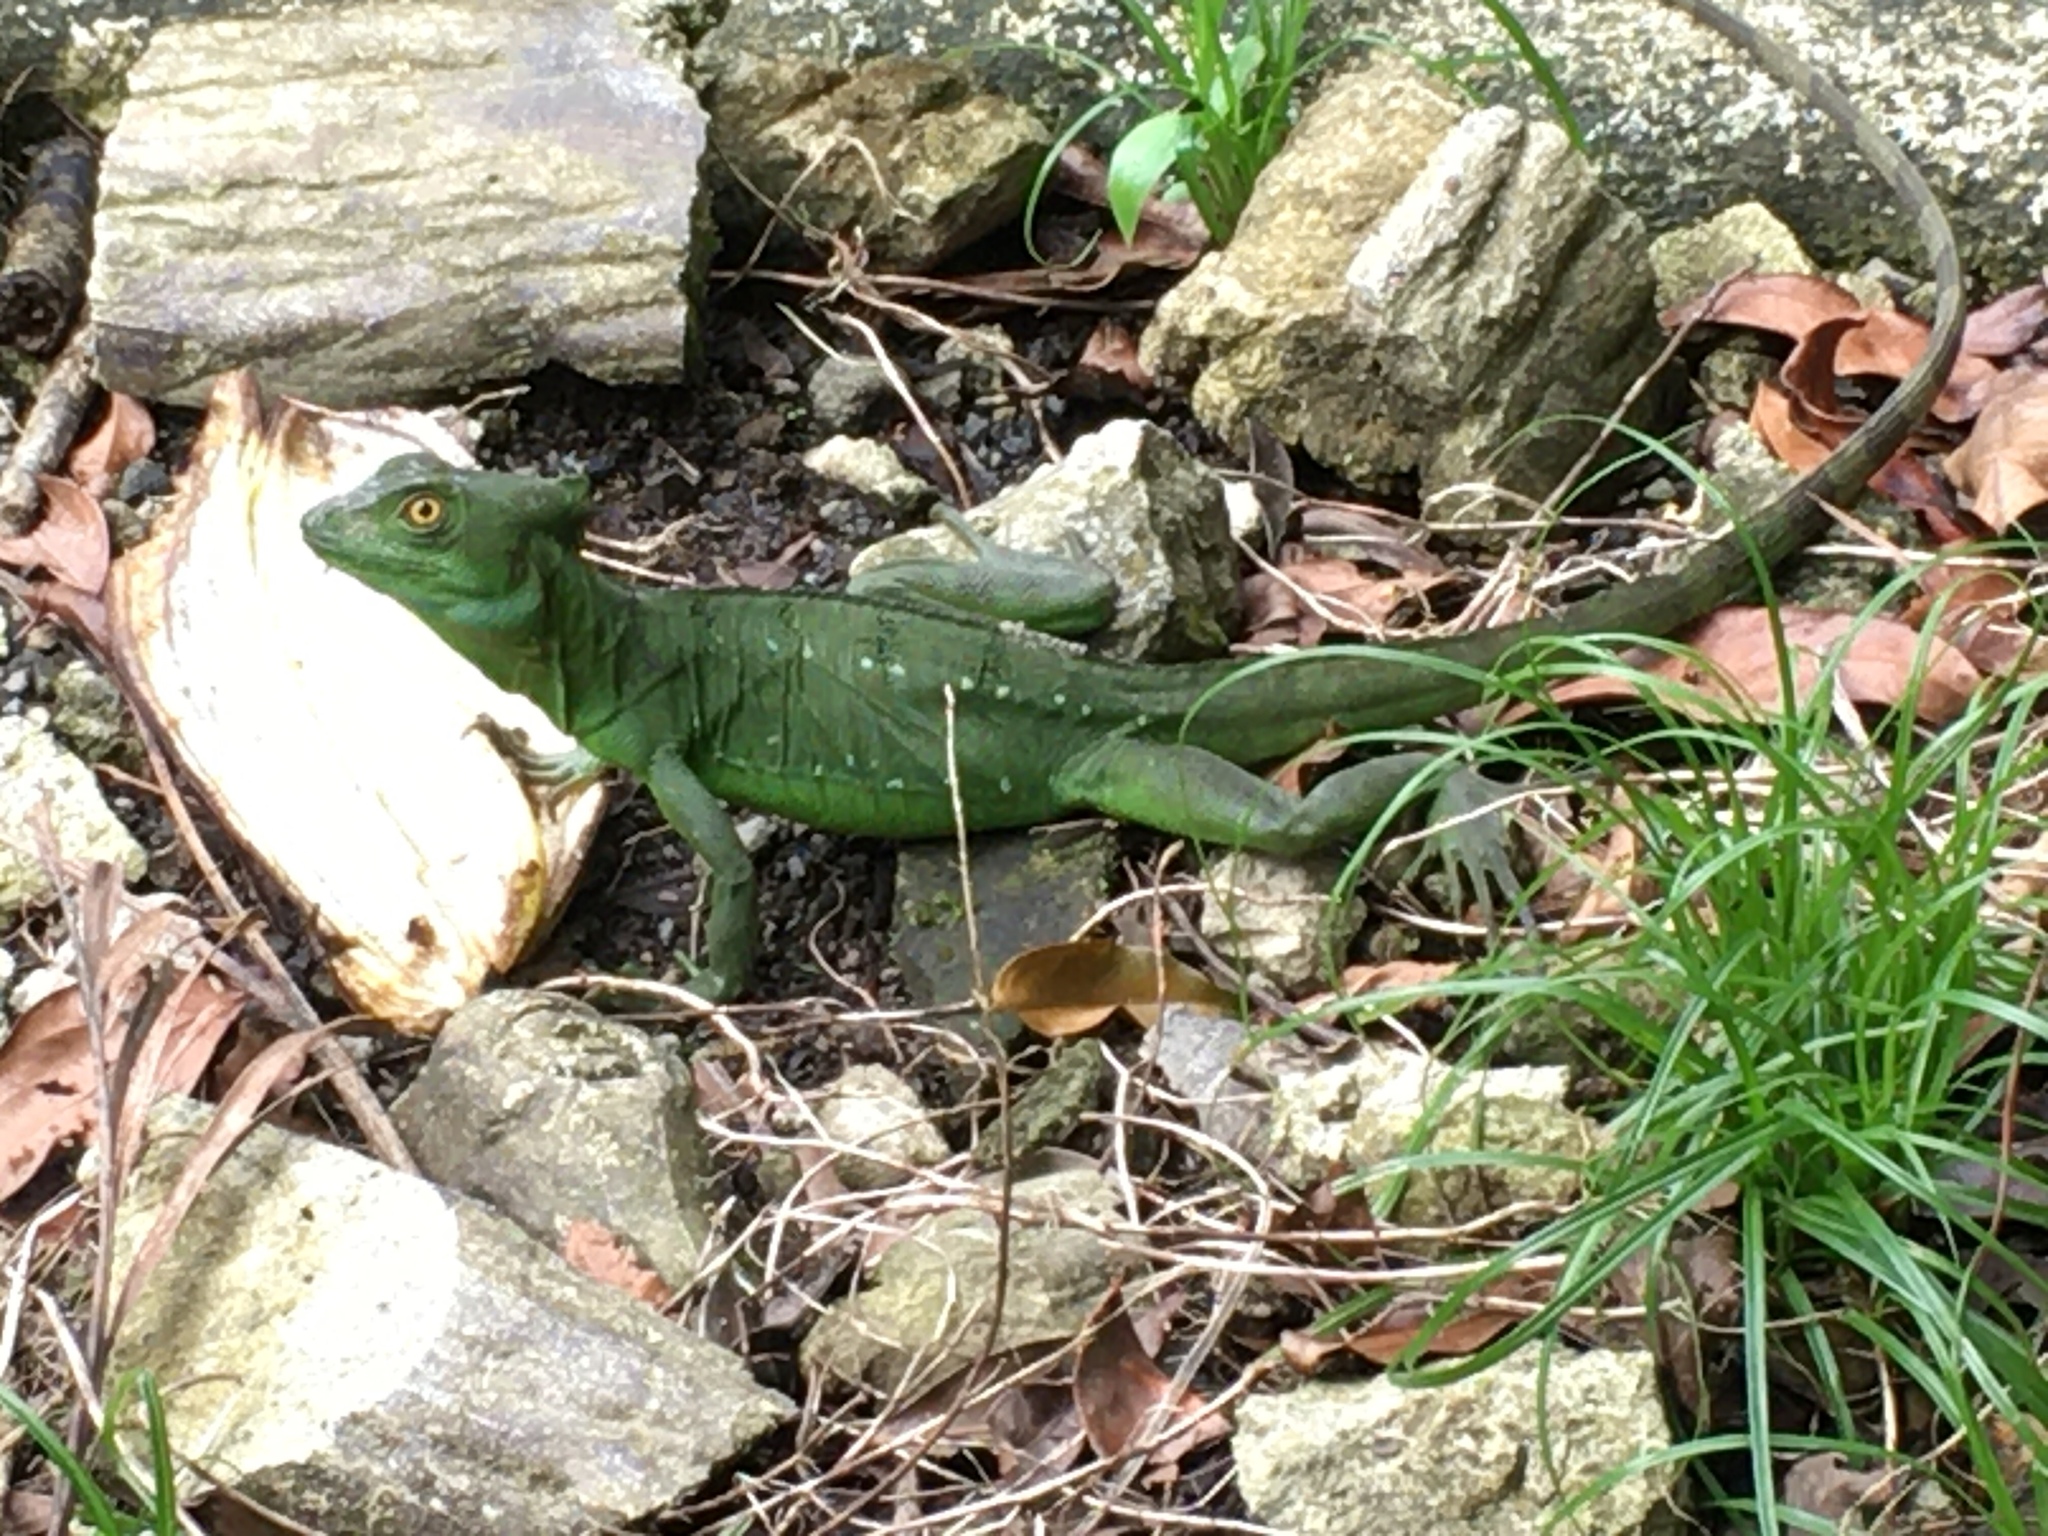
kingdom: Animalia
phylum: Chordata
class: Squamata
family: Corytophanidae
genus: Basiliscus
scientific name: Basiliscus plumifrons
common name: Green basilisk
